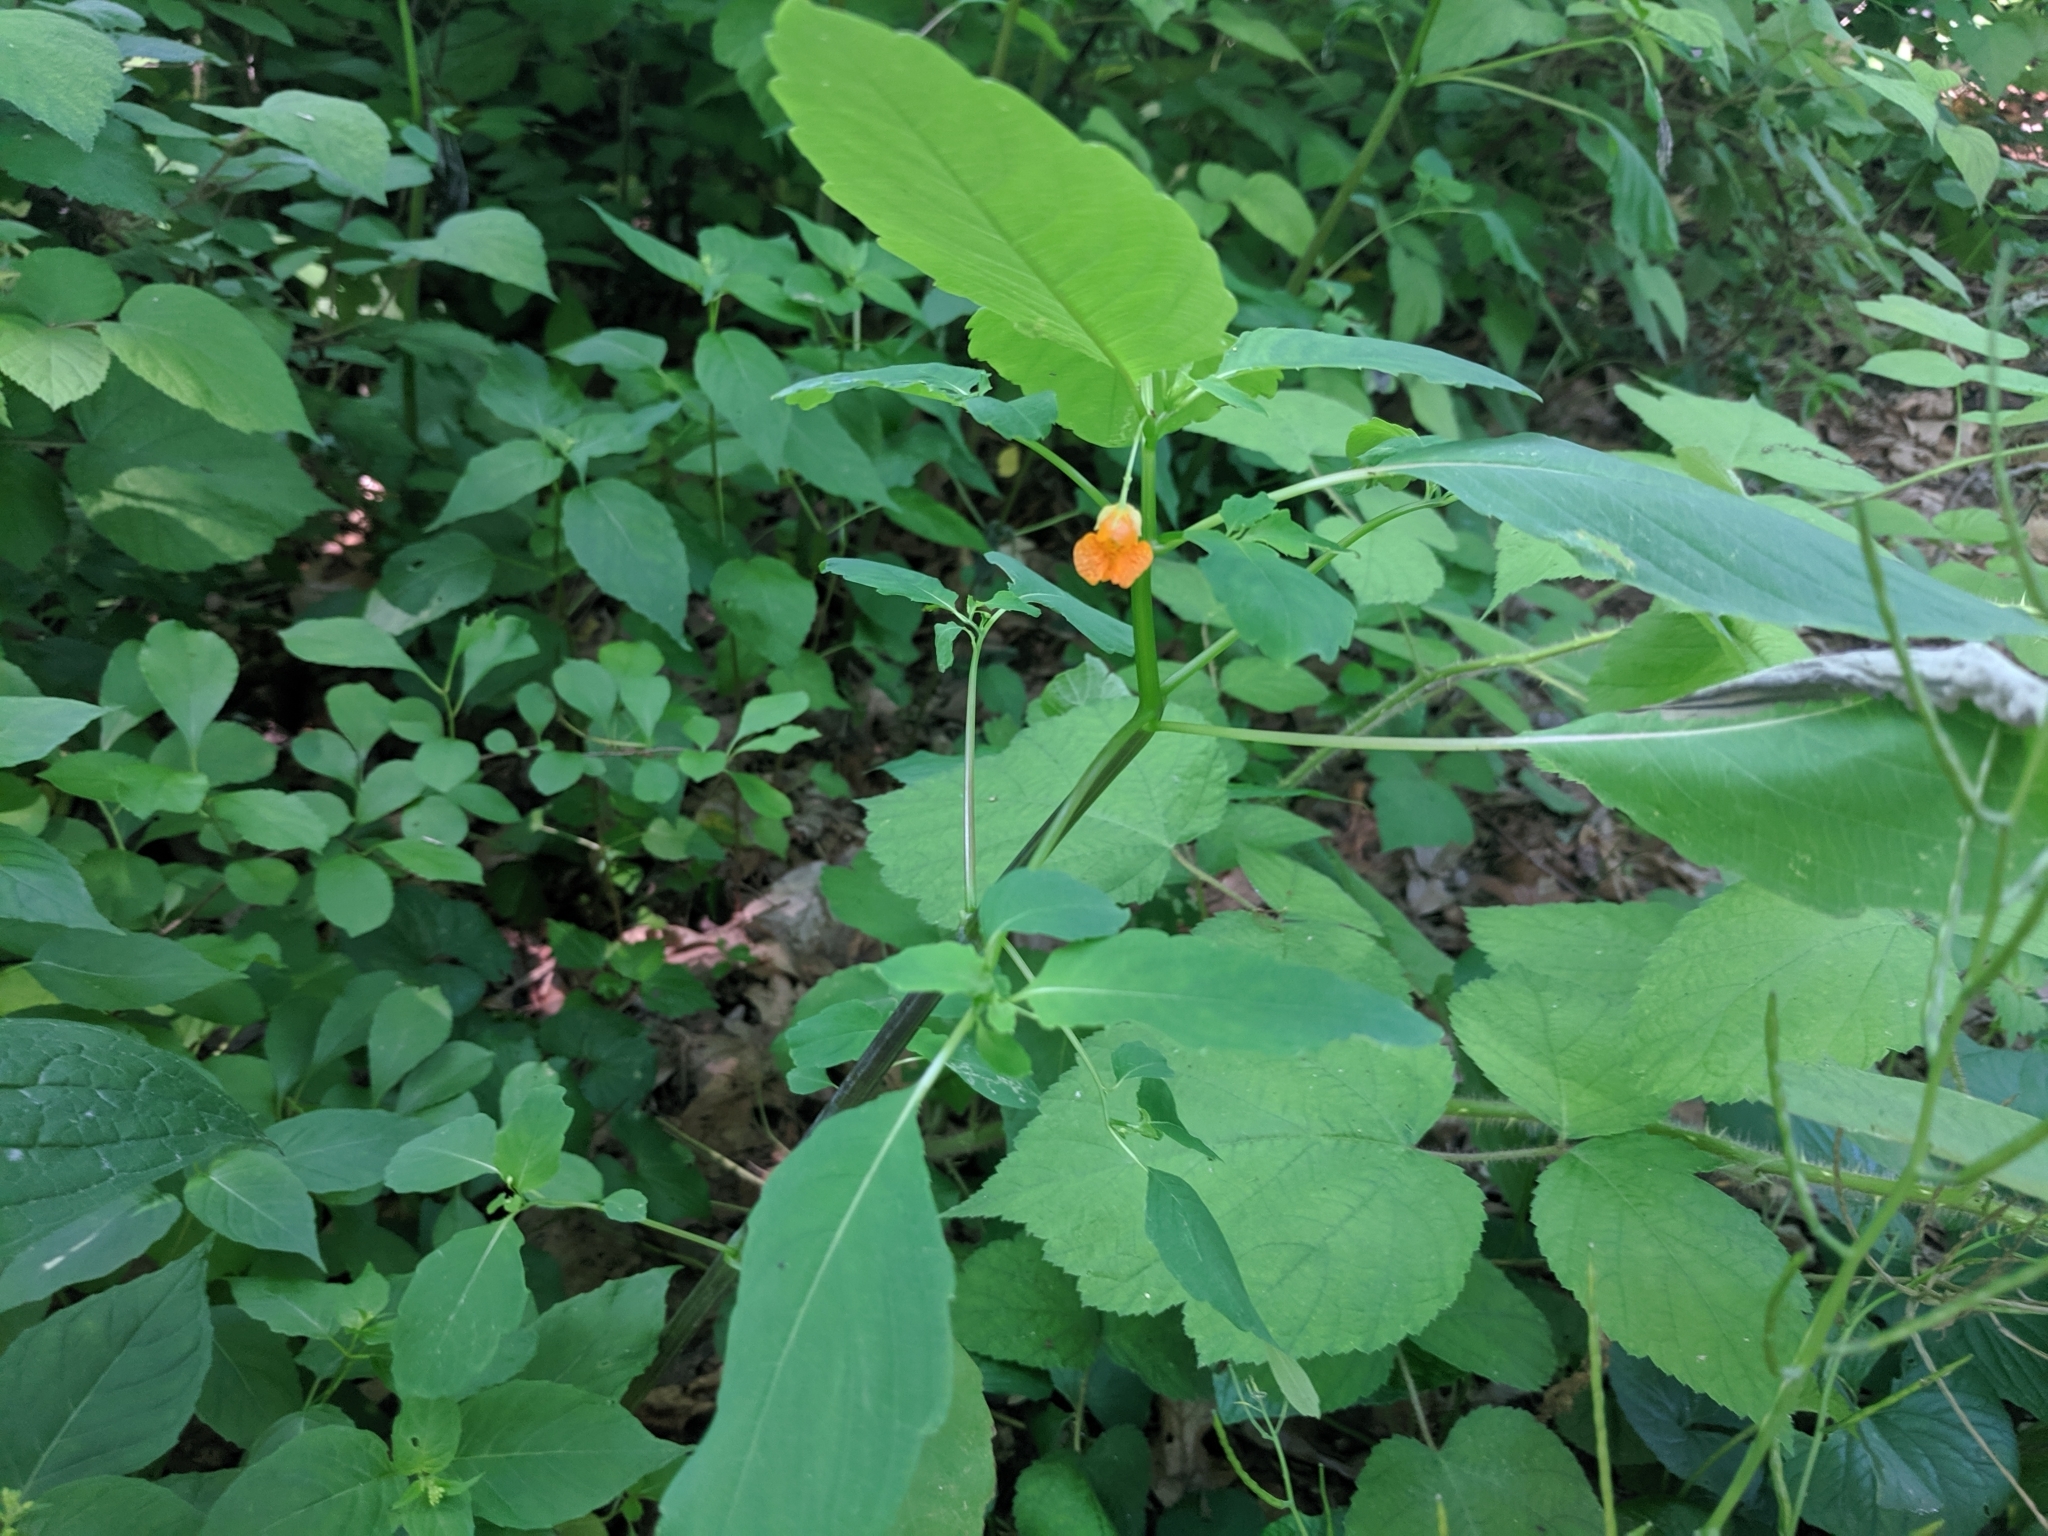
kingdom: Plantae
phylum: Tracheophyta
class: Magnoliopsida
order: Ericales
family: Balsaminaceae
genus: Impatiens
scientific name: Impatiens capensis
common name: Orange balsam
